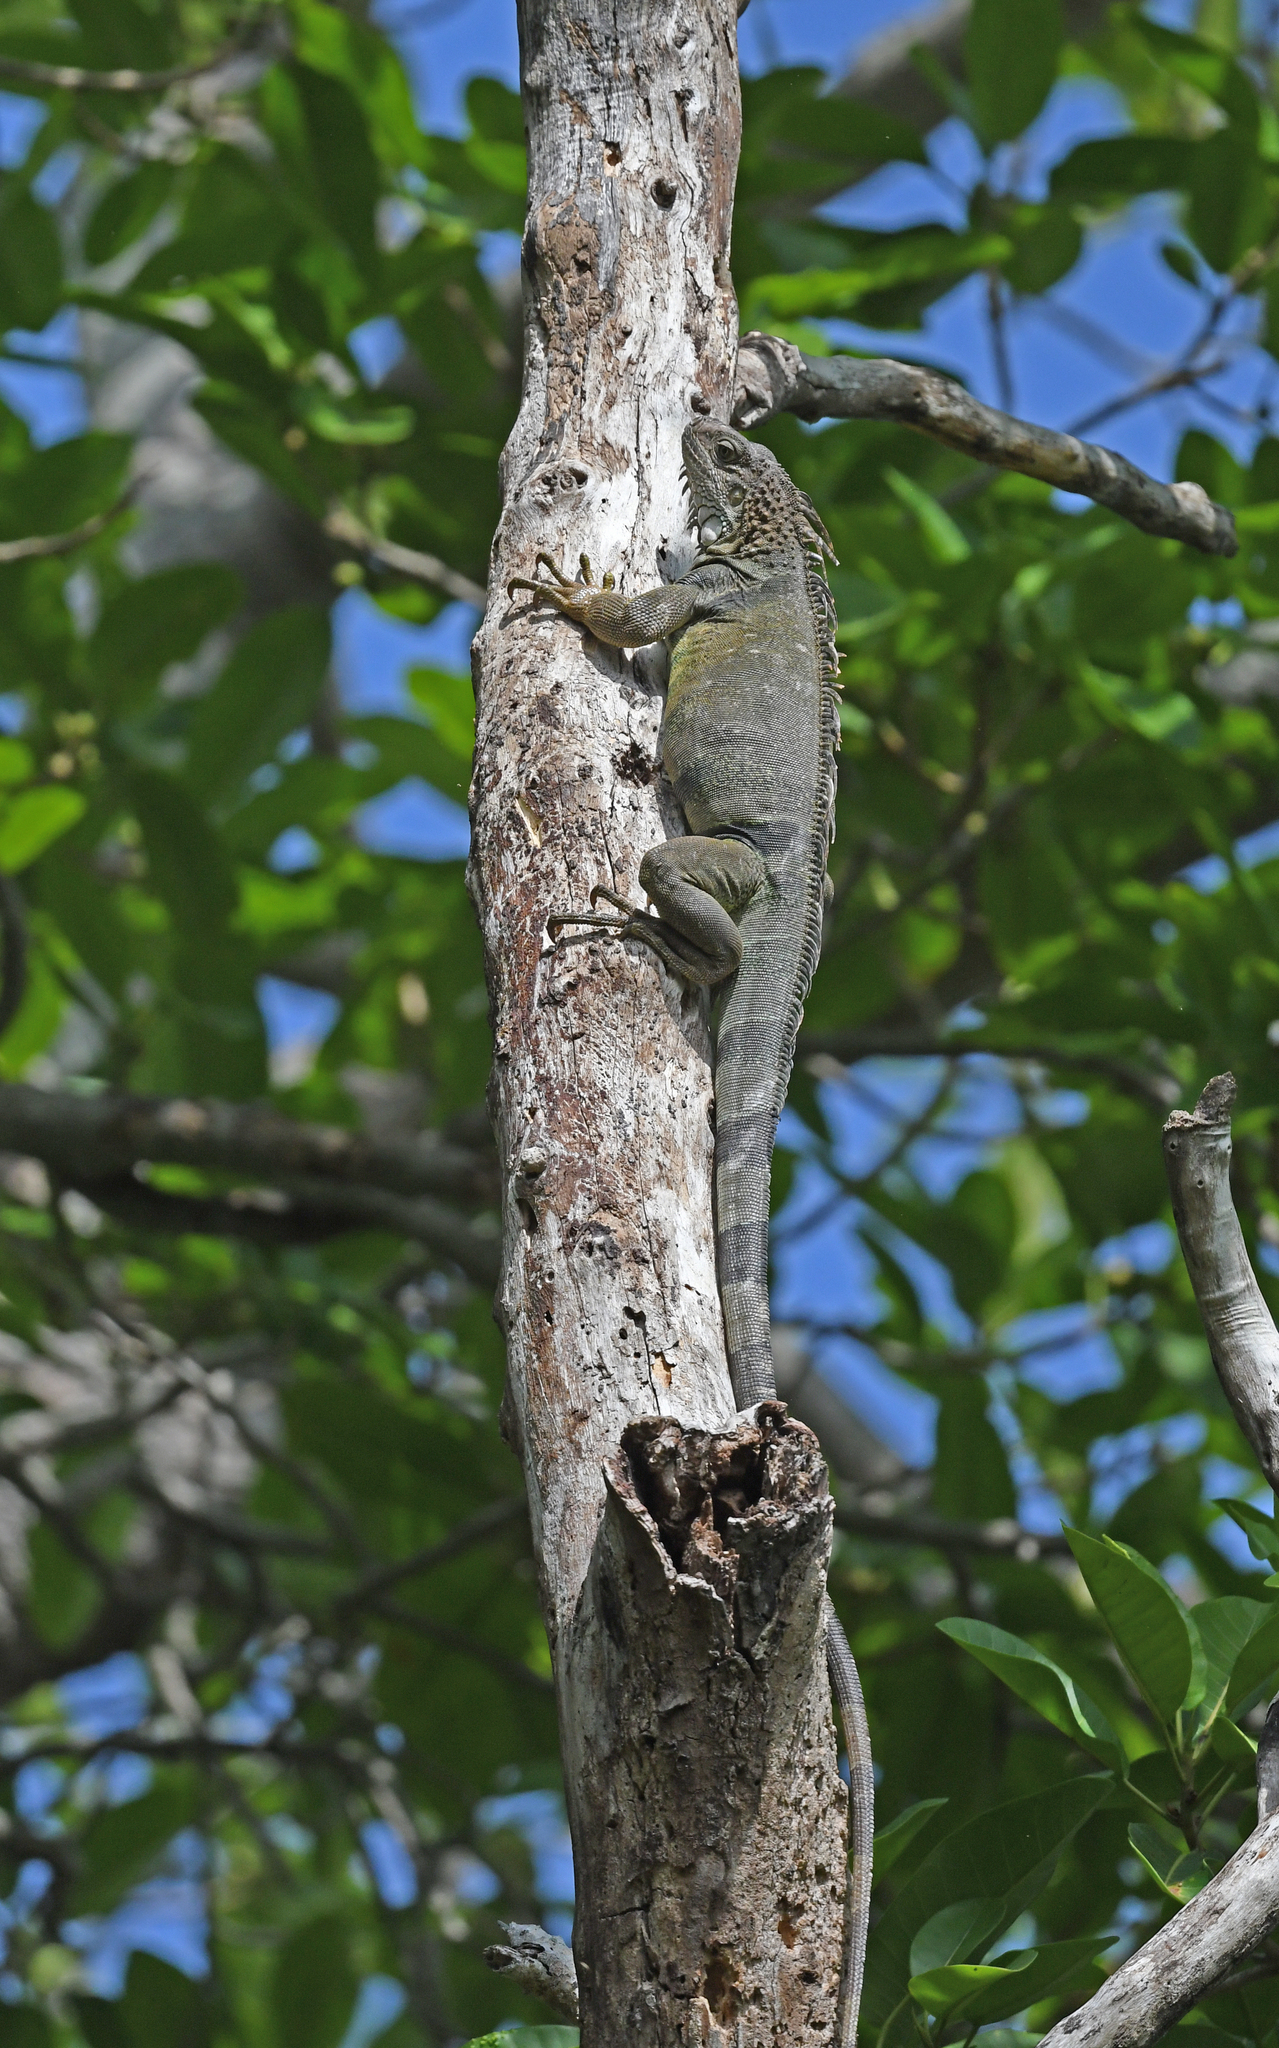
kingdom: Animalia
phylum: Chordata
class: Squamata
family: Iguanidae
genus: Iguana
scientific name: Iguana iguana
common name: Green iguana
